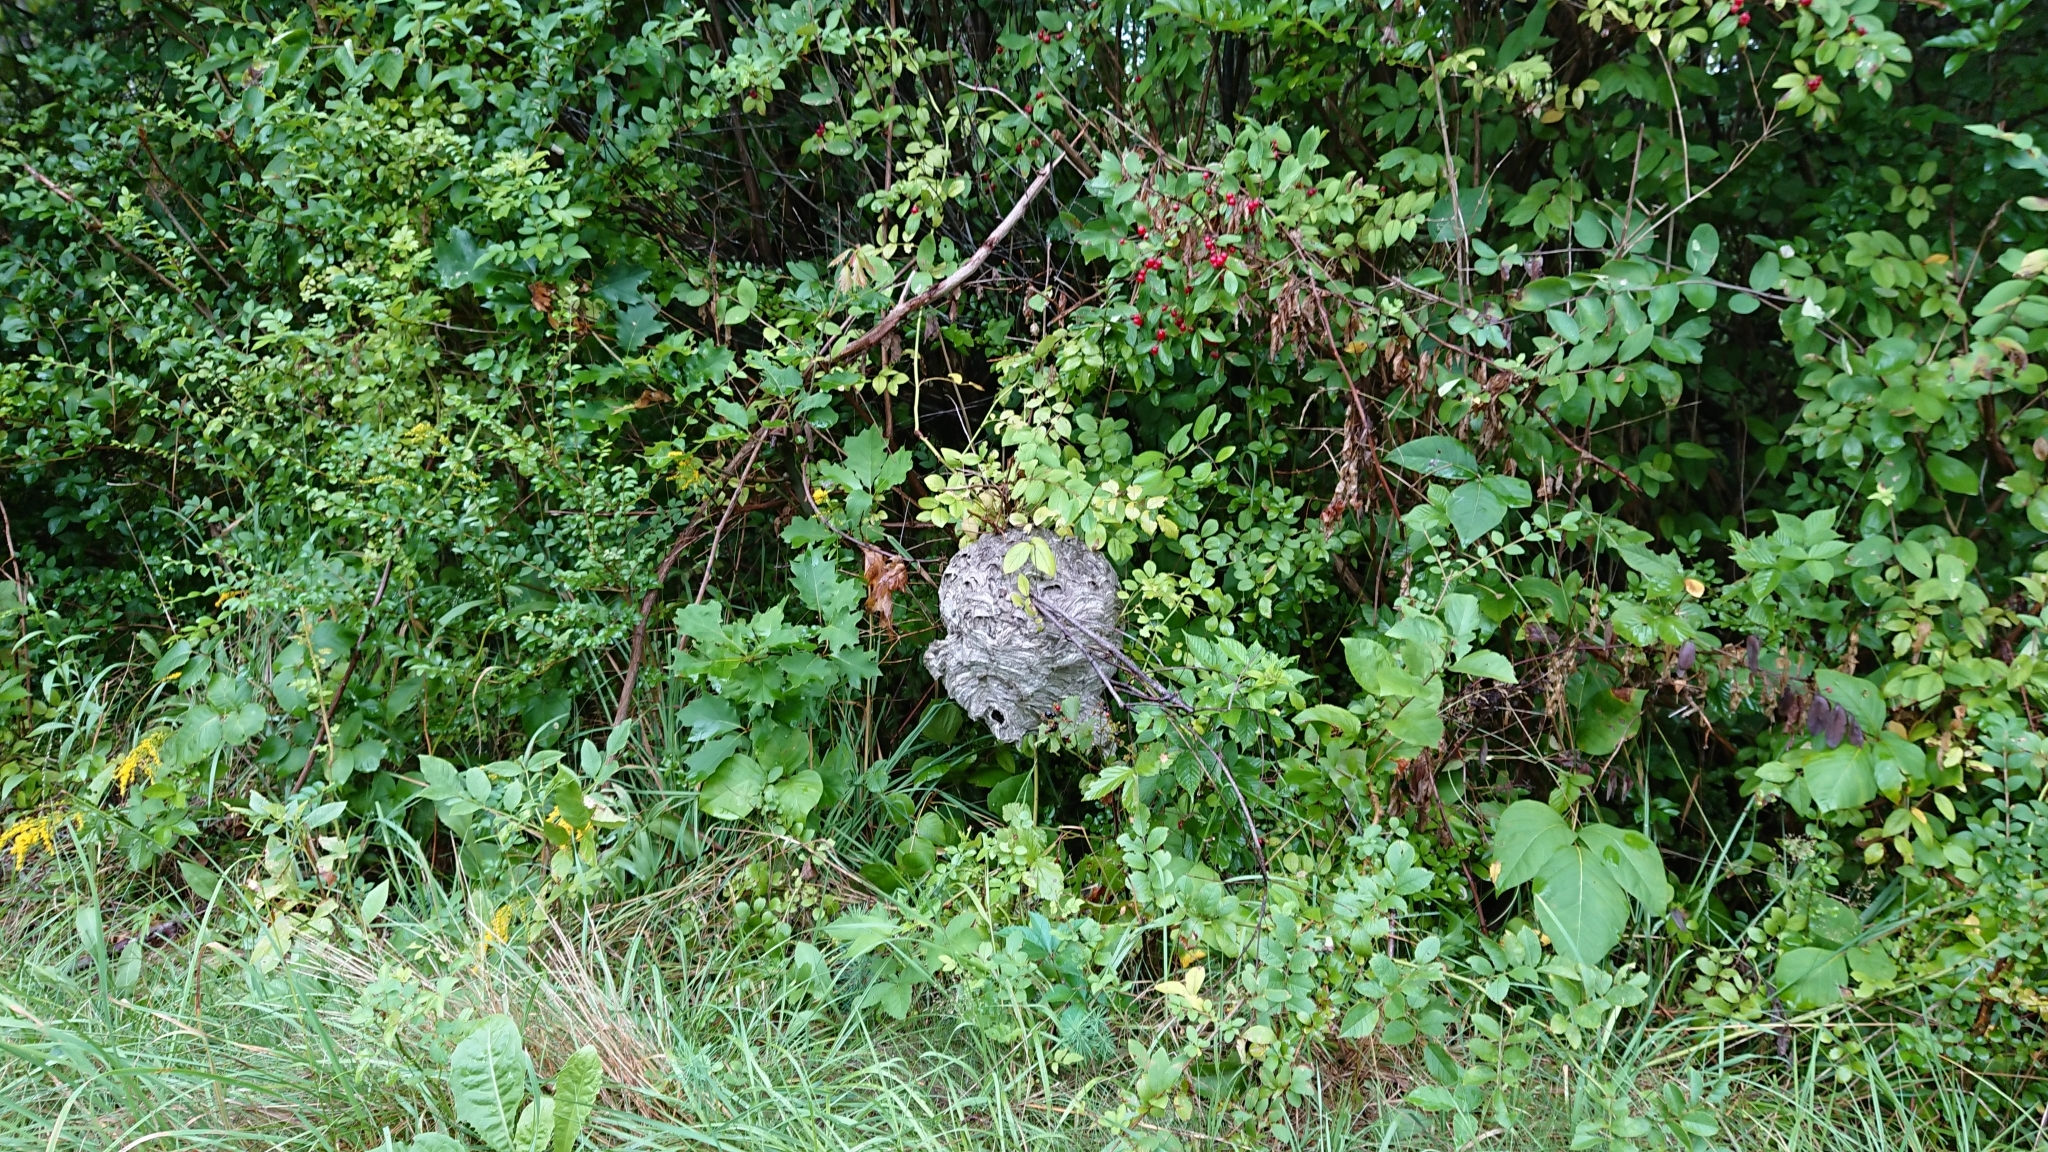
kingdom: Animalia
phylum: Arthropoda
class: Insecta
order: Hymenoptera
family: Vespidae
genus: Dolichovespula
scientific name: Dolichovespula maculata
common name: Bald-faced hornet
